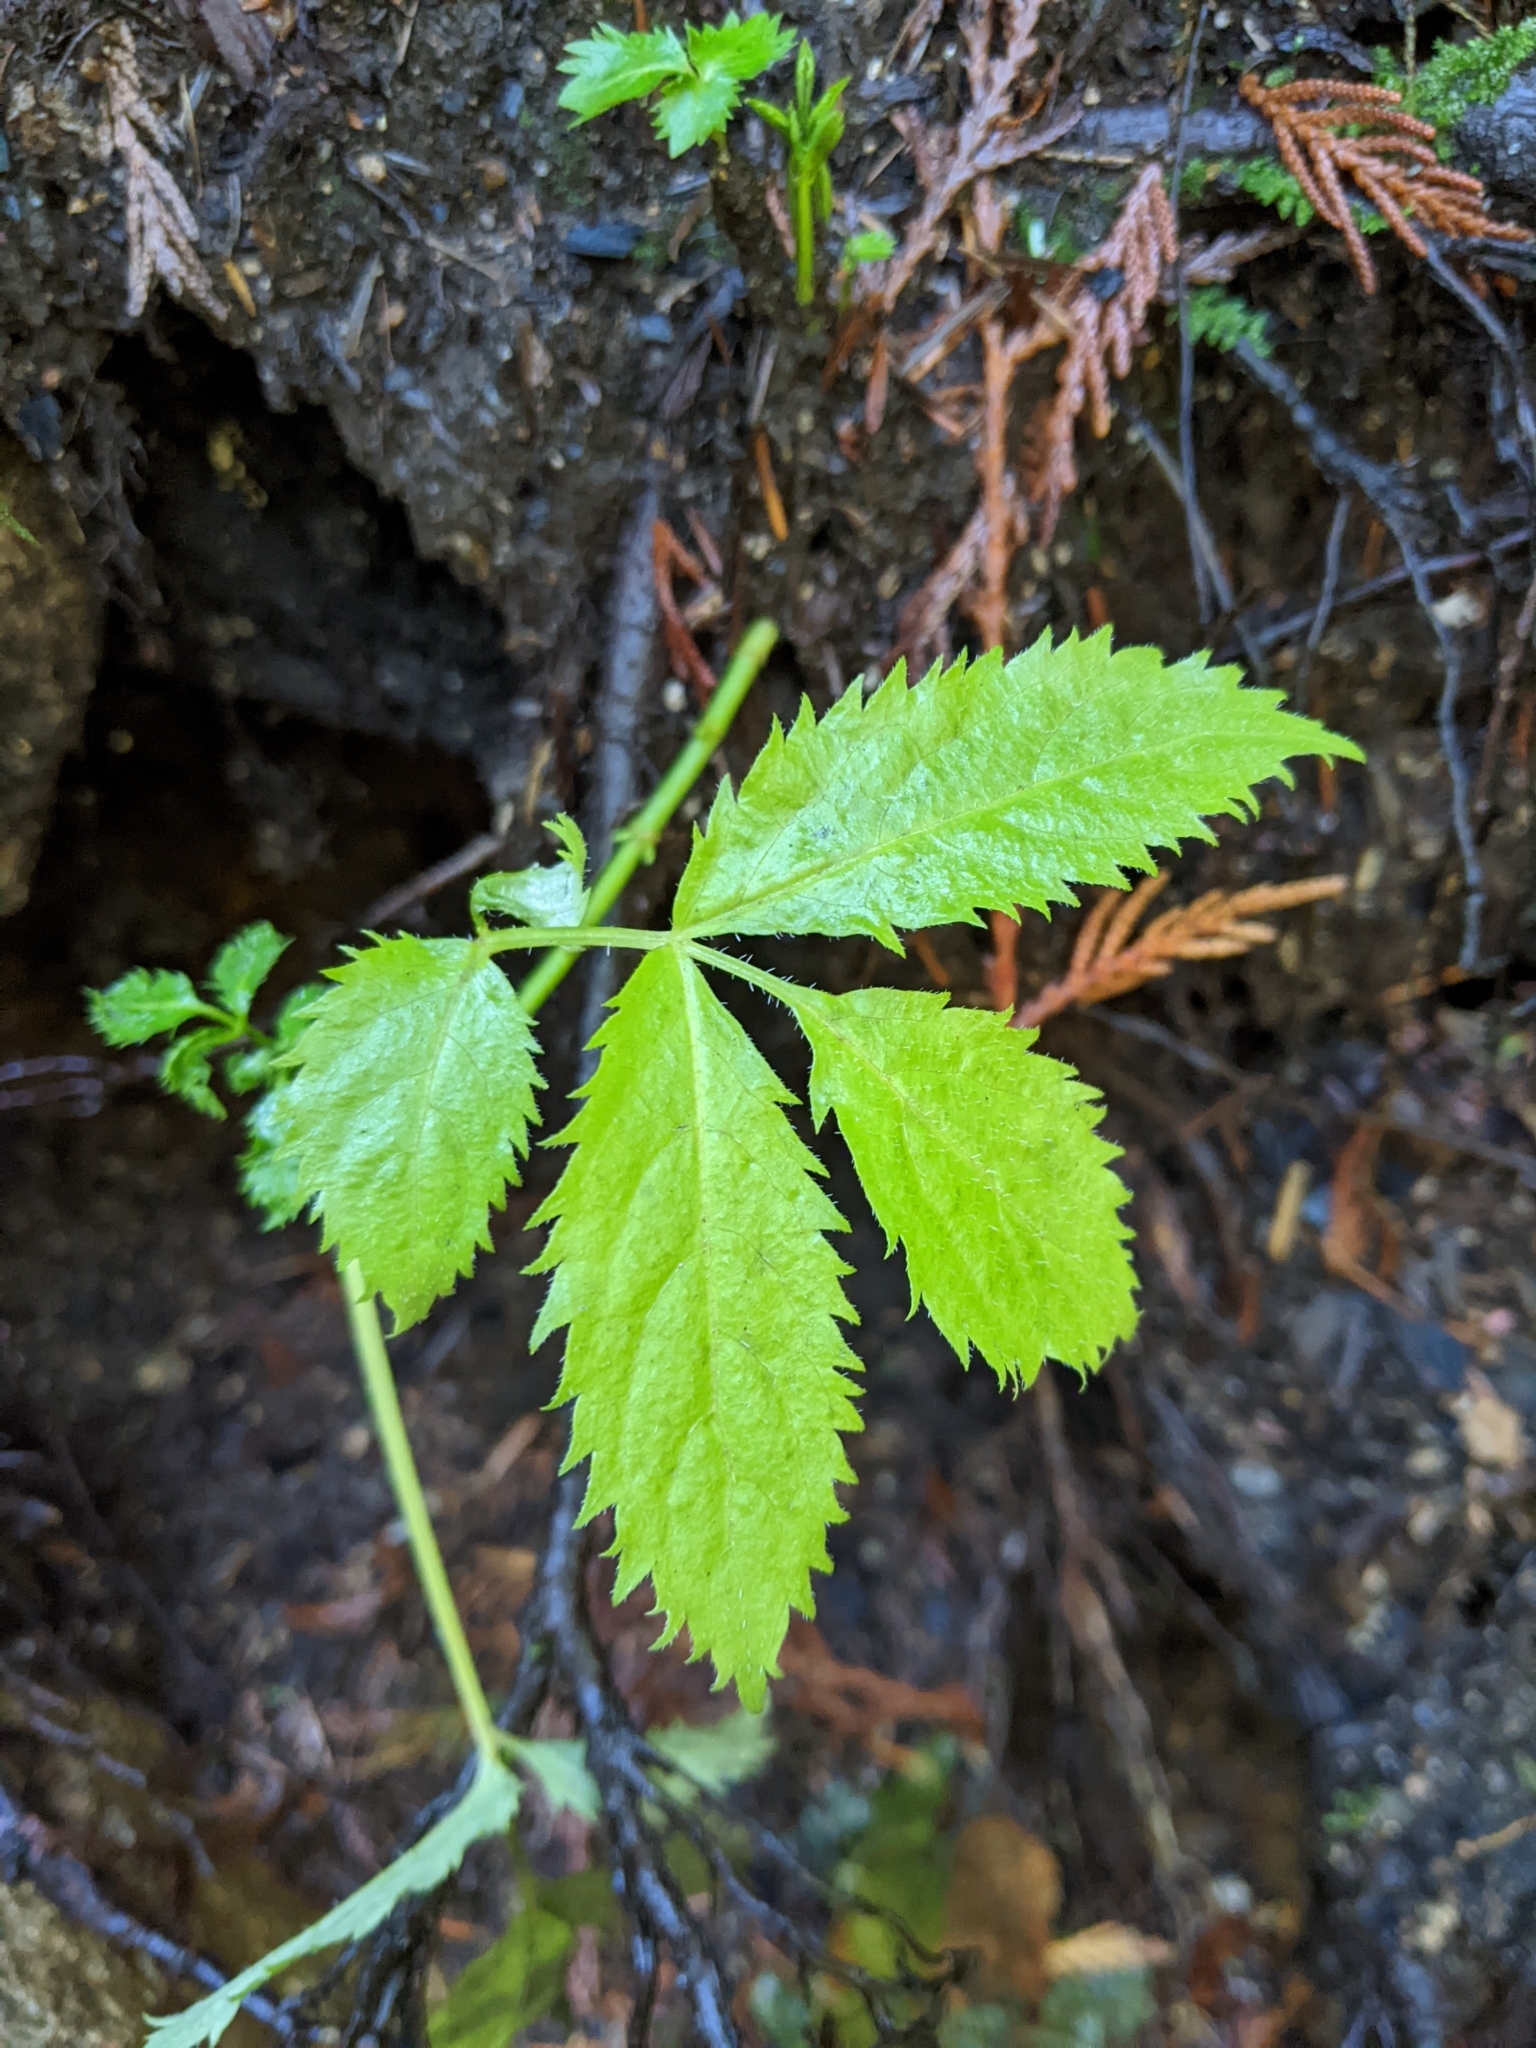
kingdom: Plantae
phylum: Tracheophyta
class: Magnoliopsida
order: Dipsacales
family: Viburnaceae
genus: Sambucus
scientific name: Sambucus racemosa
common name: Red-berried elder
